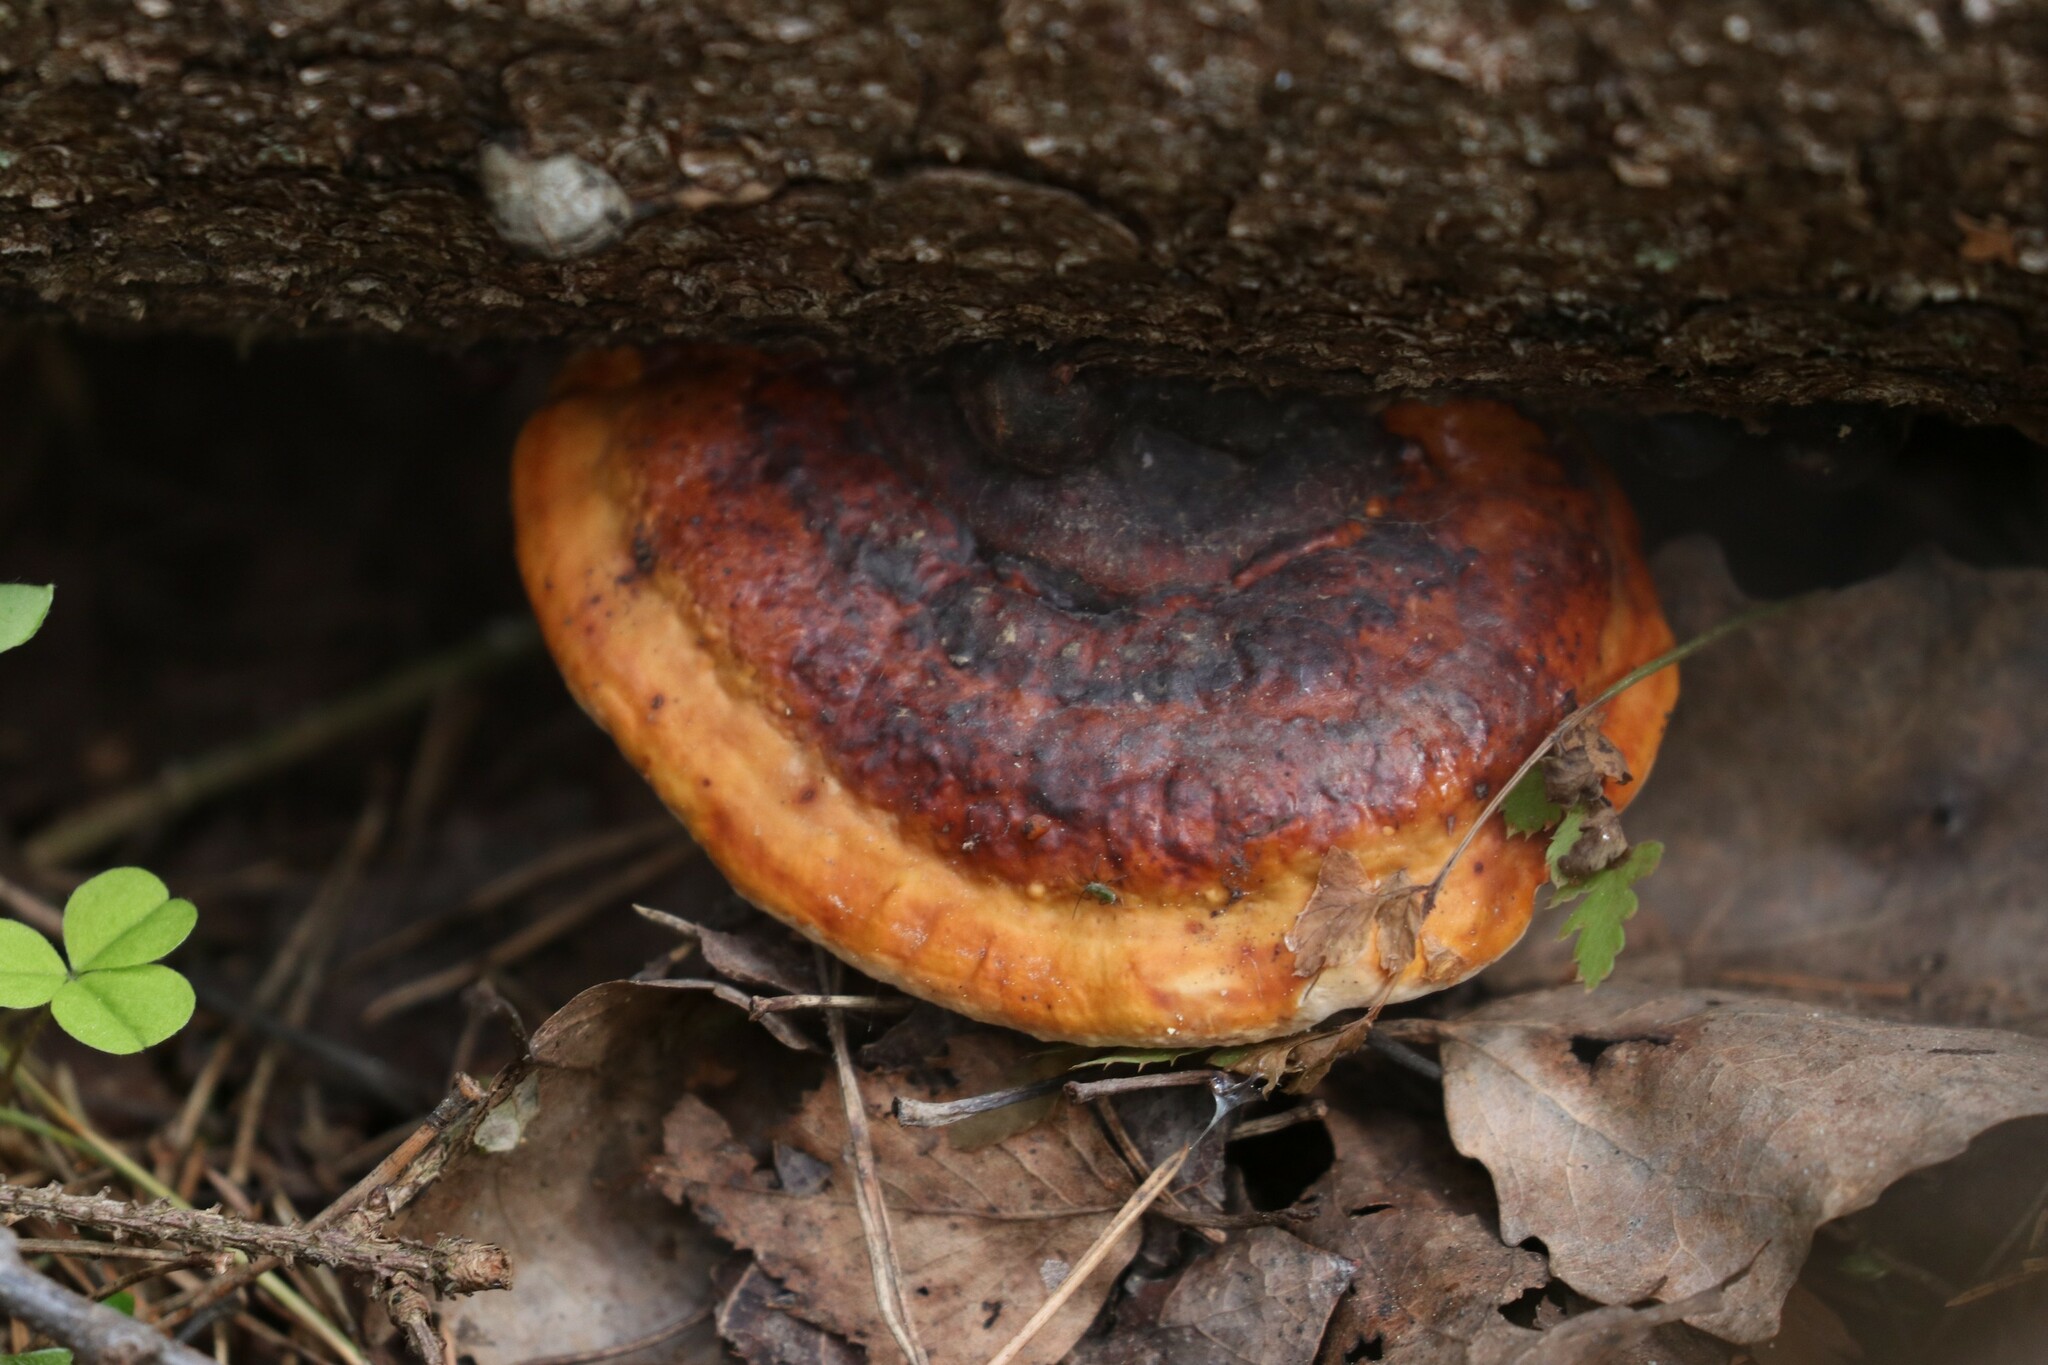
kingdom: Fungi
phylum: Basidiomycota
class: Agaricomycetes
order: Polyporales
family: Fomitopsidaceae
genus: Fomitopsis
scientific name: Fomitopsis pinicola
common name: Red-belted bracket
